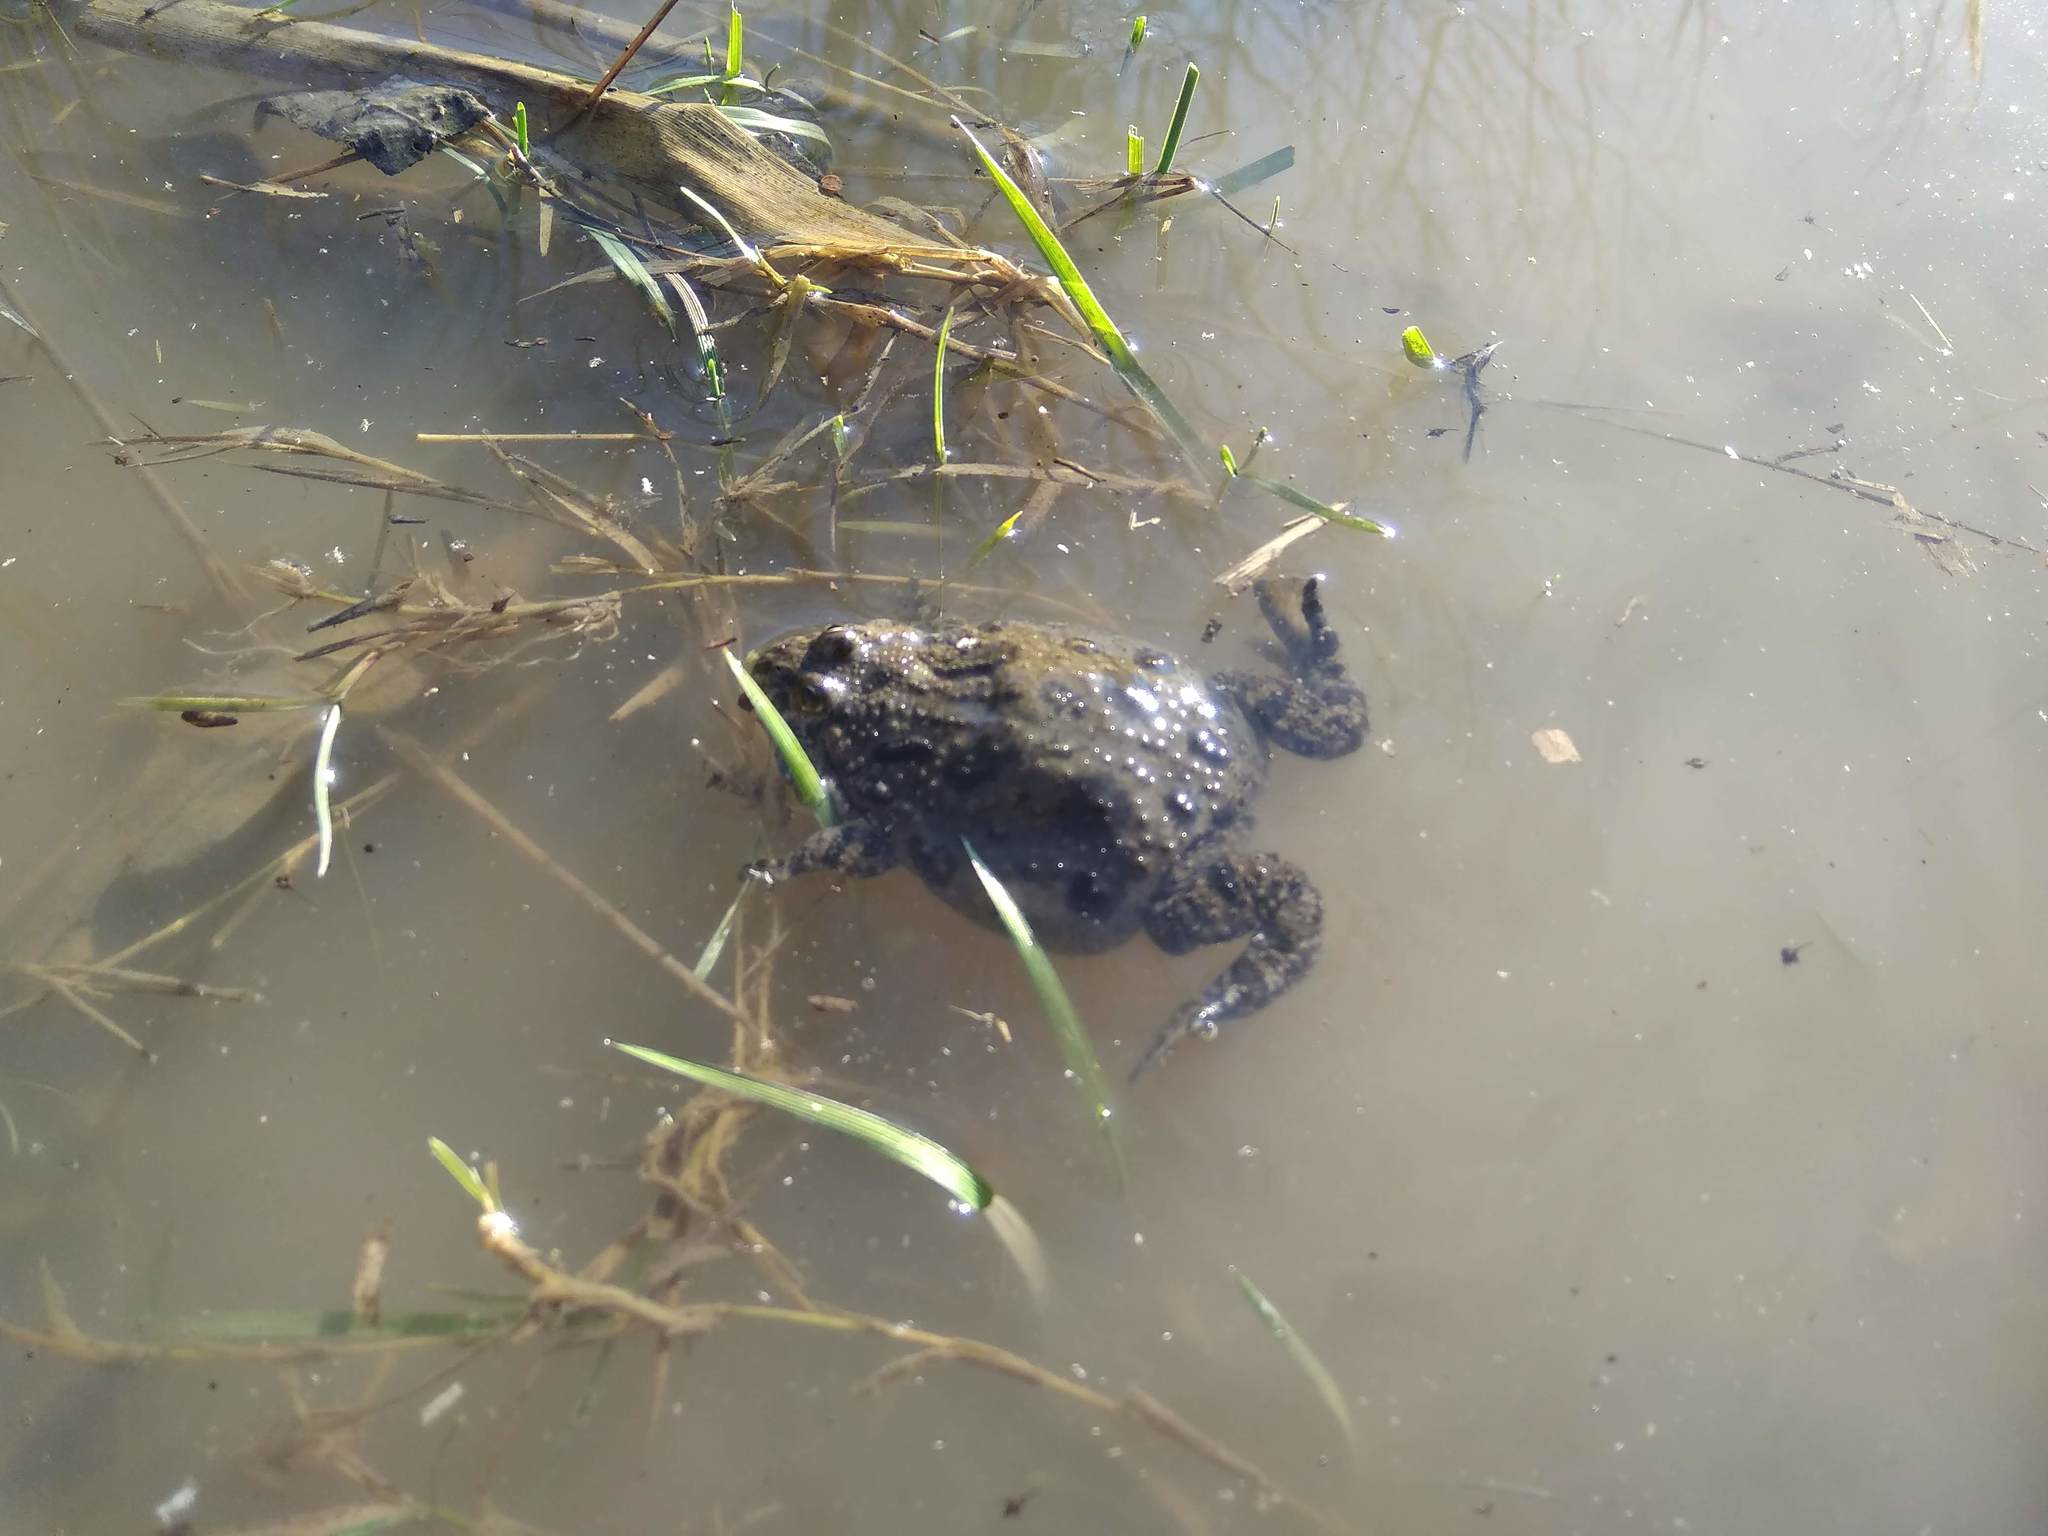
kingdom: Animalia
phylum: Chordata
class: Amphibia
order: Anura
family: Bombinatoridae
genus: Bombina
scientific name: Bombina bombina
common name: Fire-bellied toad
